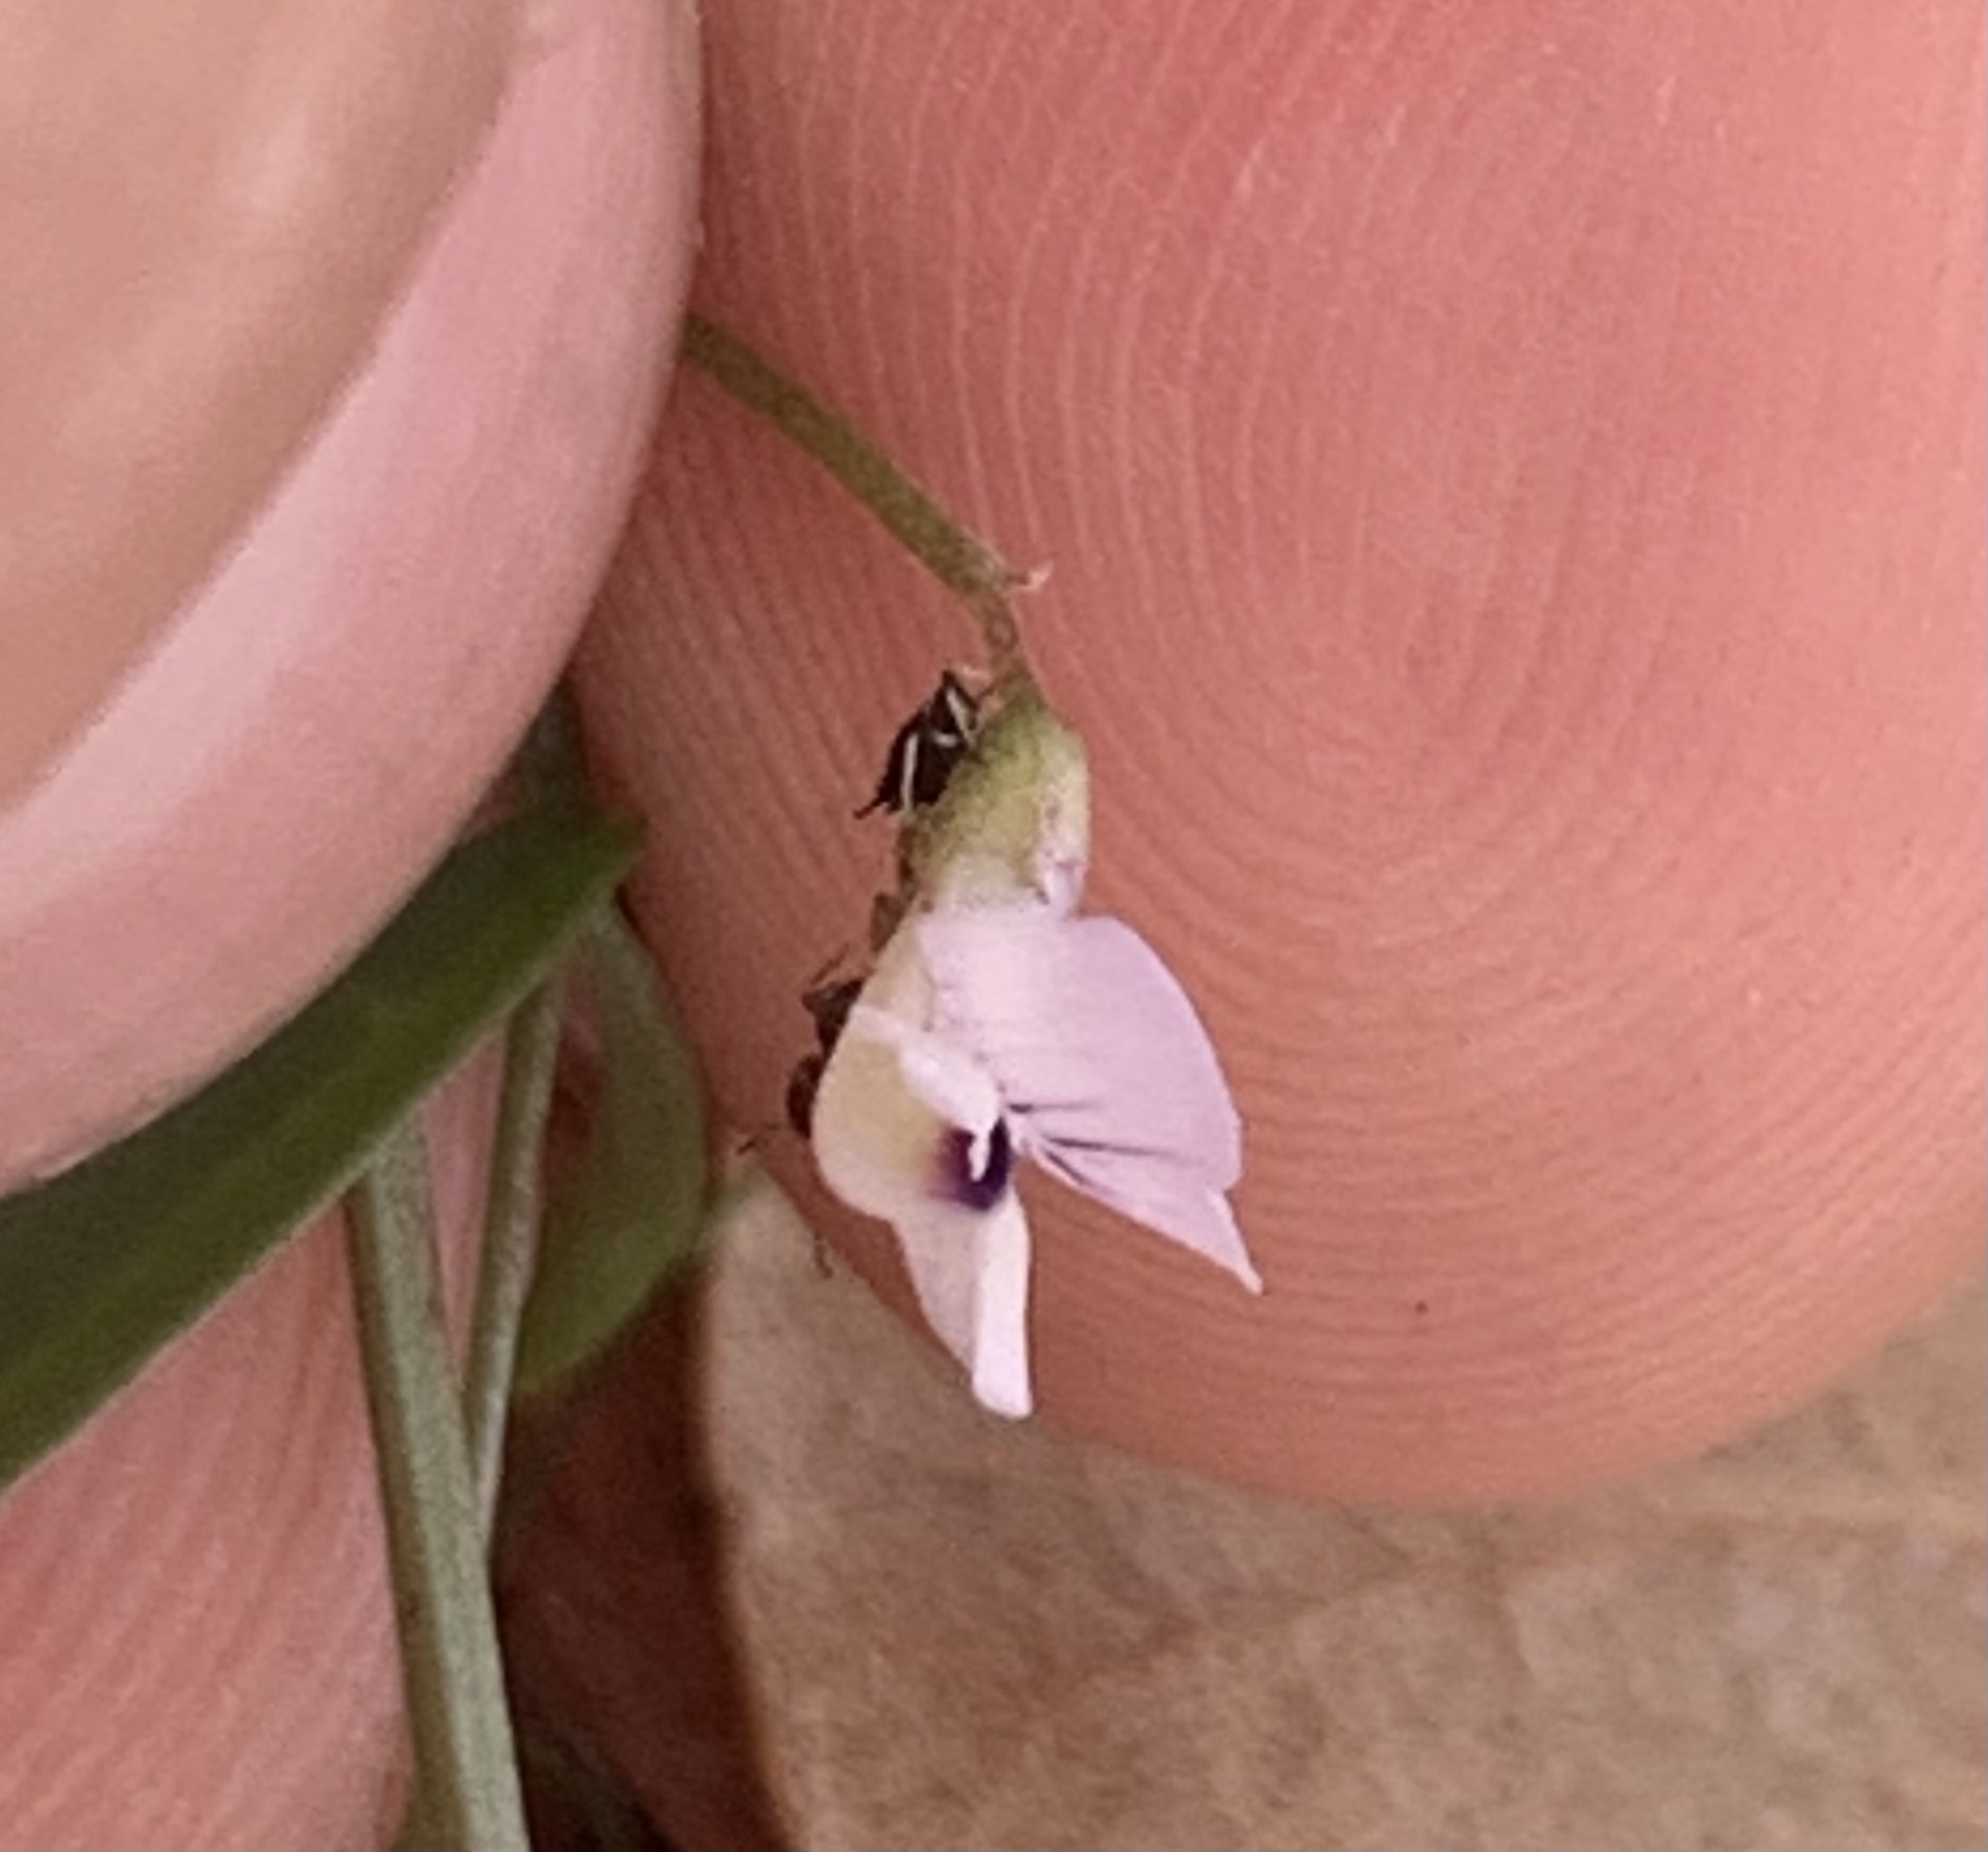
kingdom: Plantae
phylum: Tracheophyta
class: Magnoliopsida
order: Fabales
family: Fabaceae
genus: Vicia
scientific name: Vicia acutifolia
